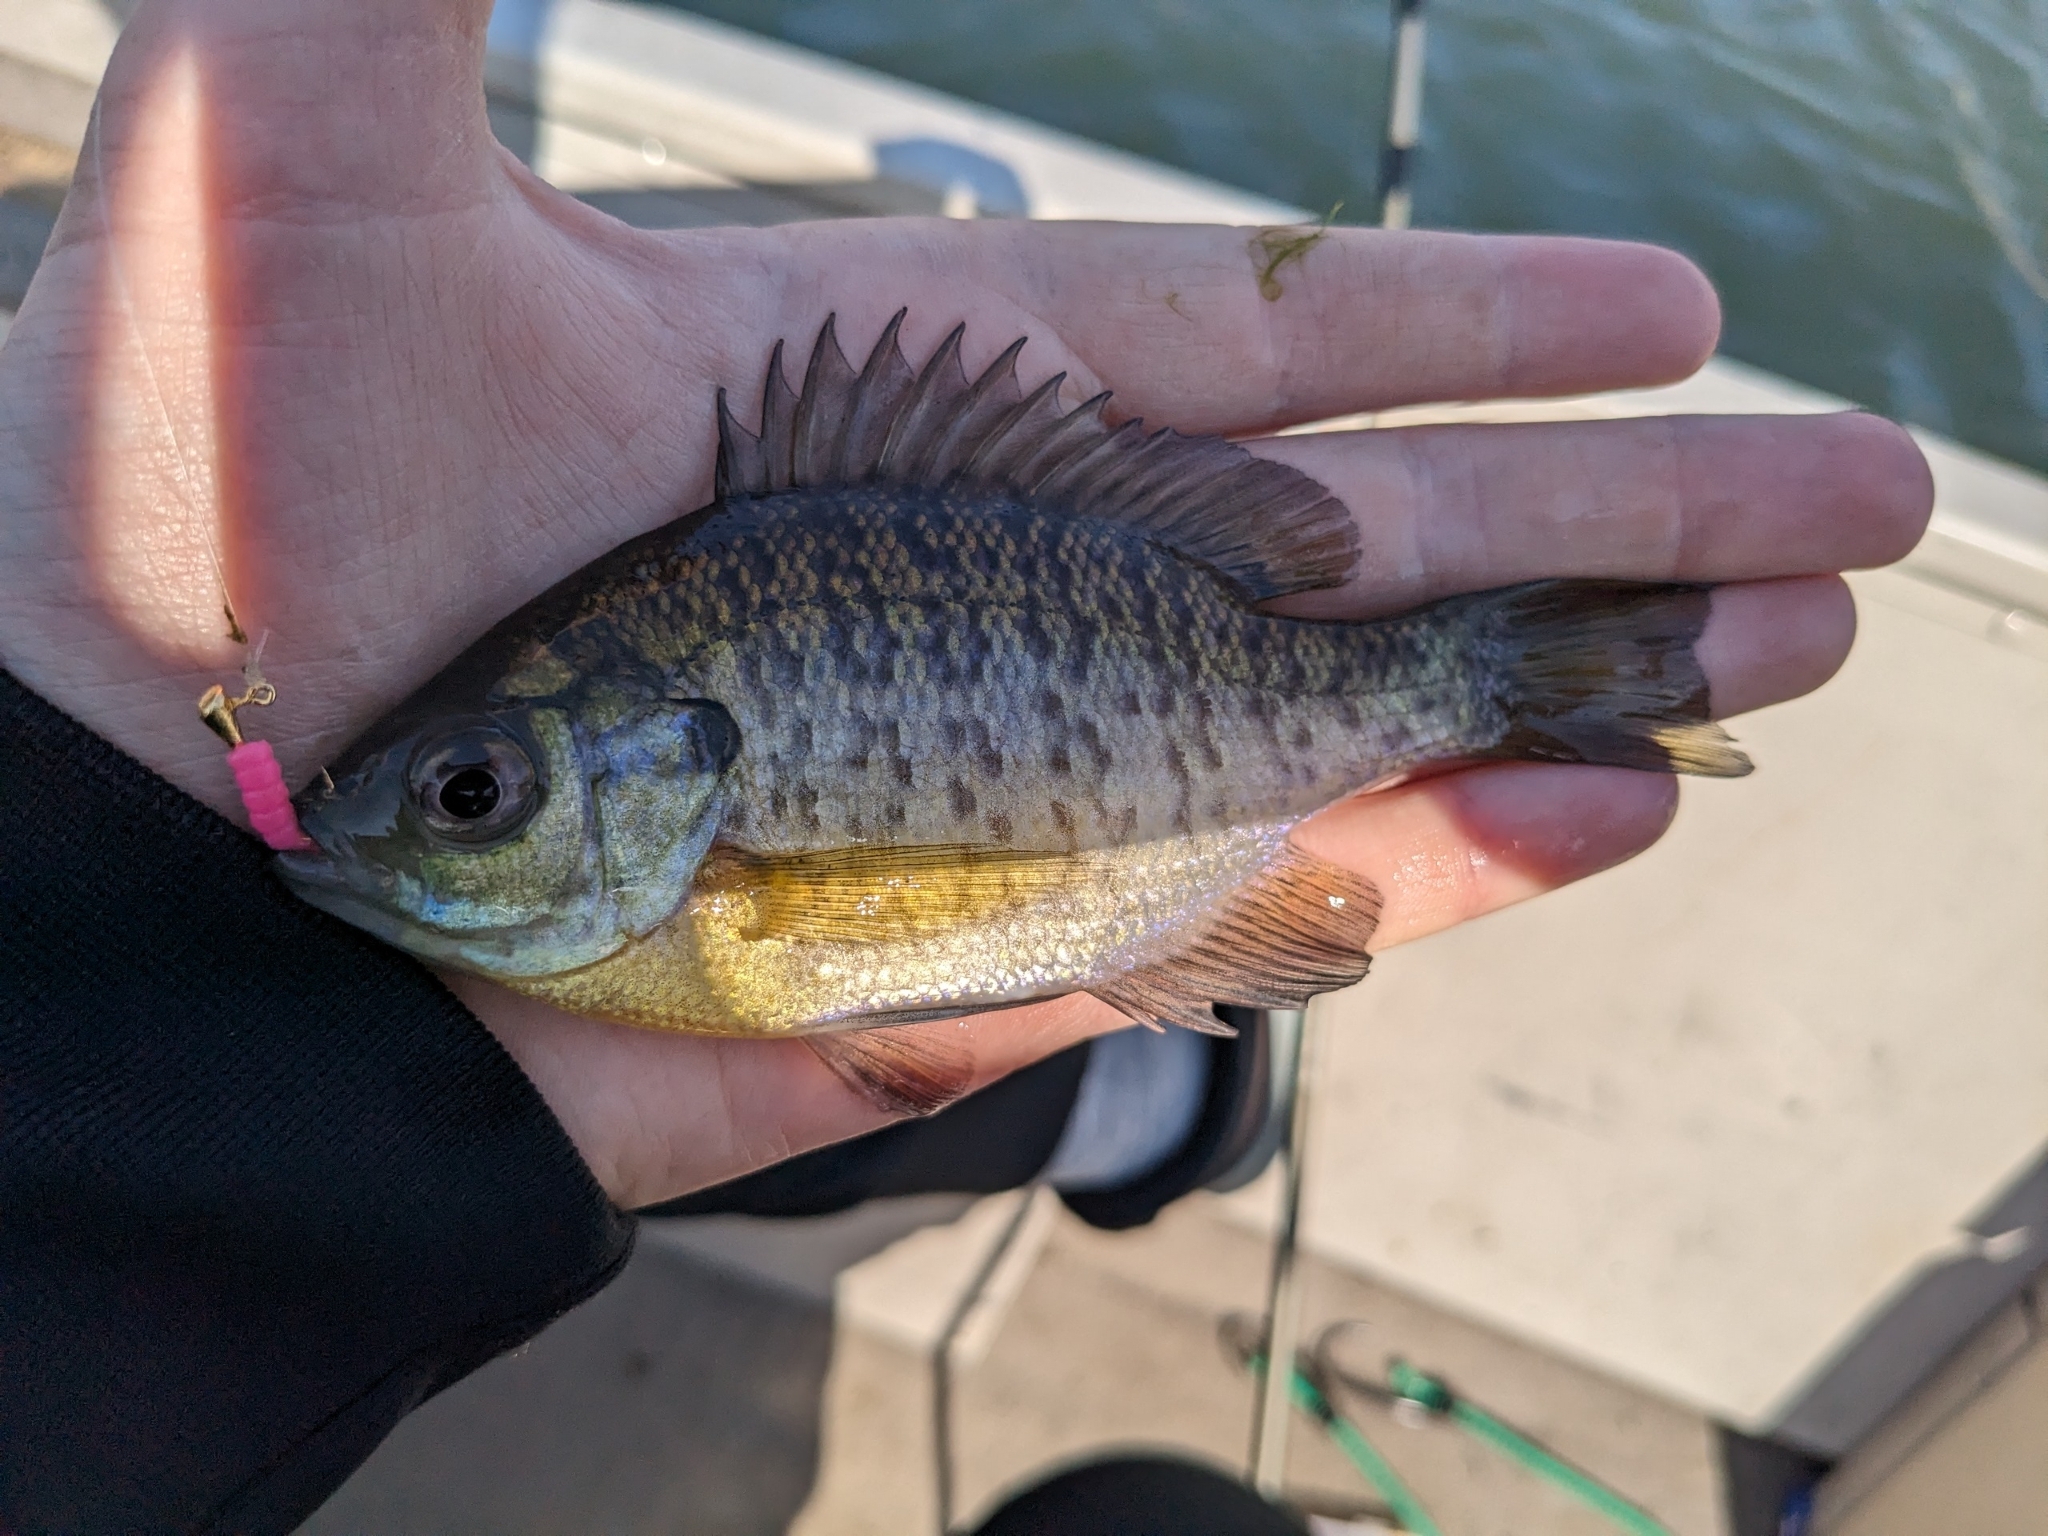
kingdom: Animalia
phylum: Chordata
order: Perciformes
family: Centrarchidae
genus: Lepomis
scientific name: Lepomis macrochirus
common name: Bluegill
